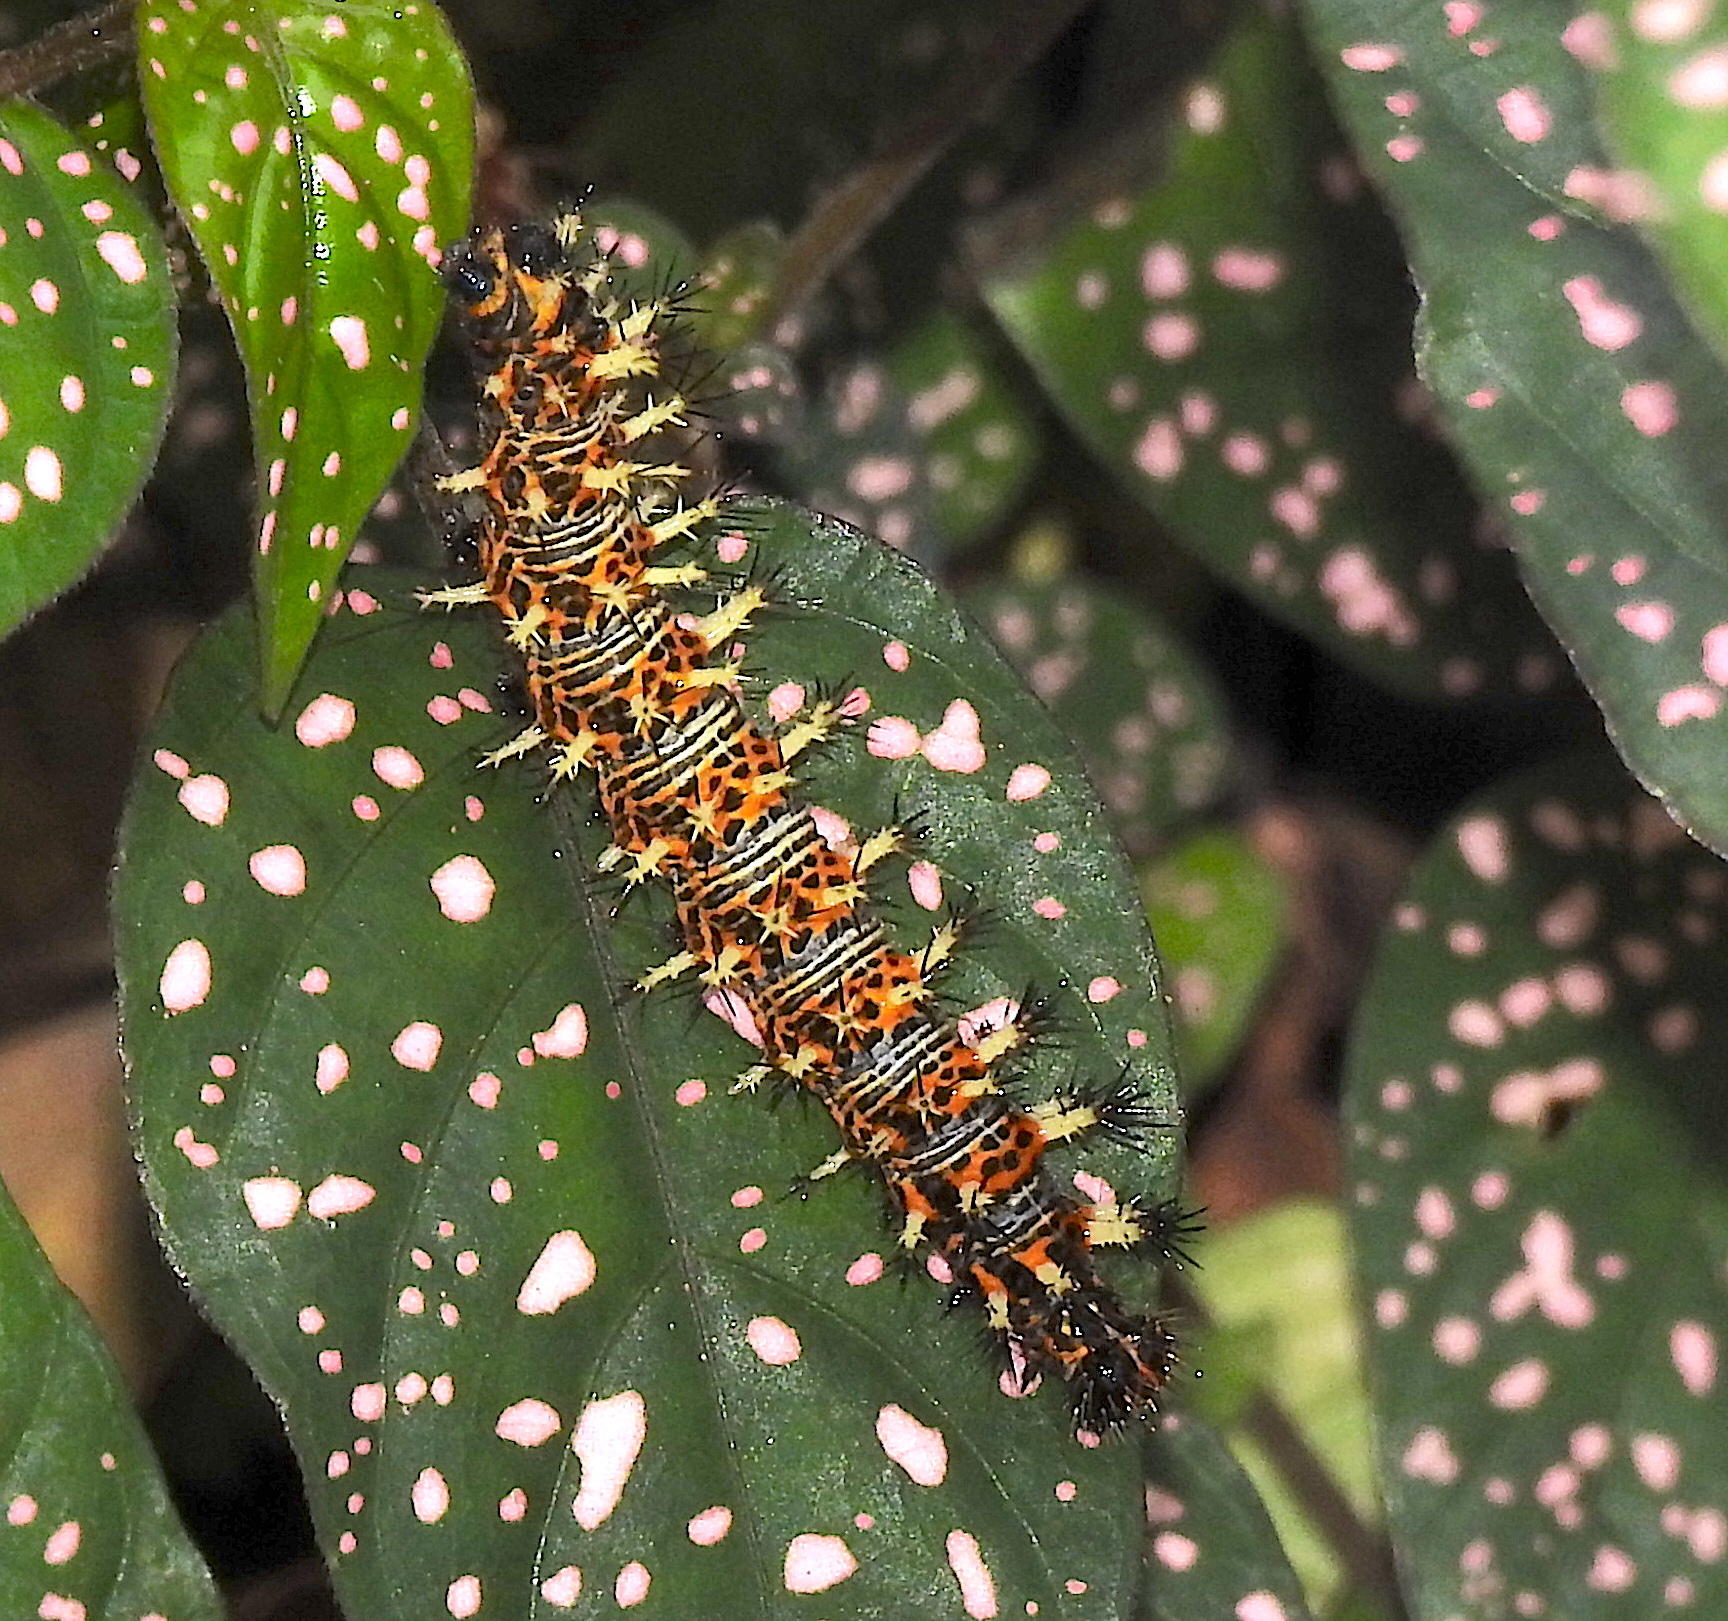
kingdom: Animalia
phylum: Arthropoda
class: Insecta
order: Lepidoptera
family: Nymphalidae
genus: Vanessa
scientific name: Vanessa Kaniska canace
